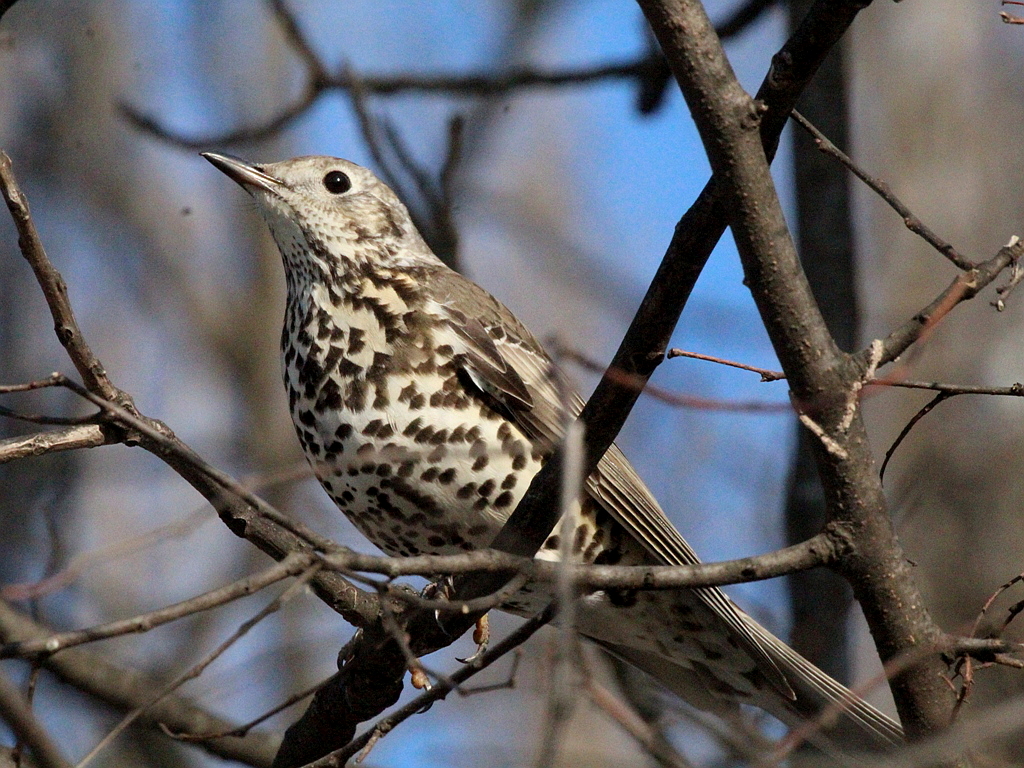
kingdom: Animalia
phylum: Chordata
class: Aves
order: Passeriformes
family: Turdidae
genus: Turdus
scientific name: Turdus viscivorus
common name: Mistle thrush
